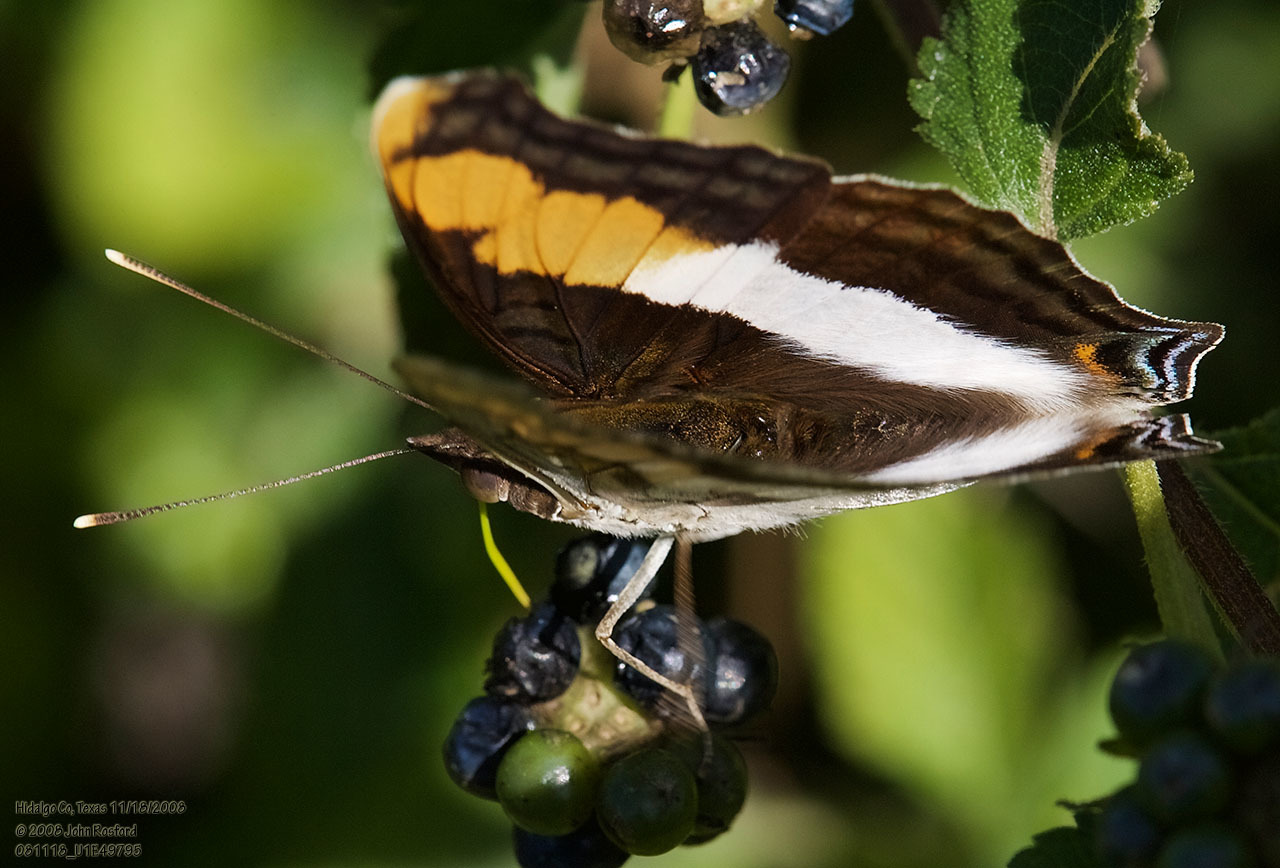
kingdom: Animalia
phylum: Arthropoda
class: Insecta
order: Lepidoptera
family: Nymphalidae
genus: Doxocopa
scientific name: Doxocopa laure
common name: Silver emperor
